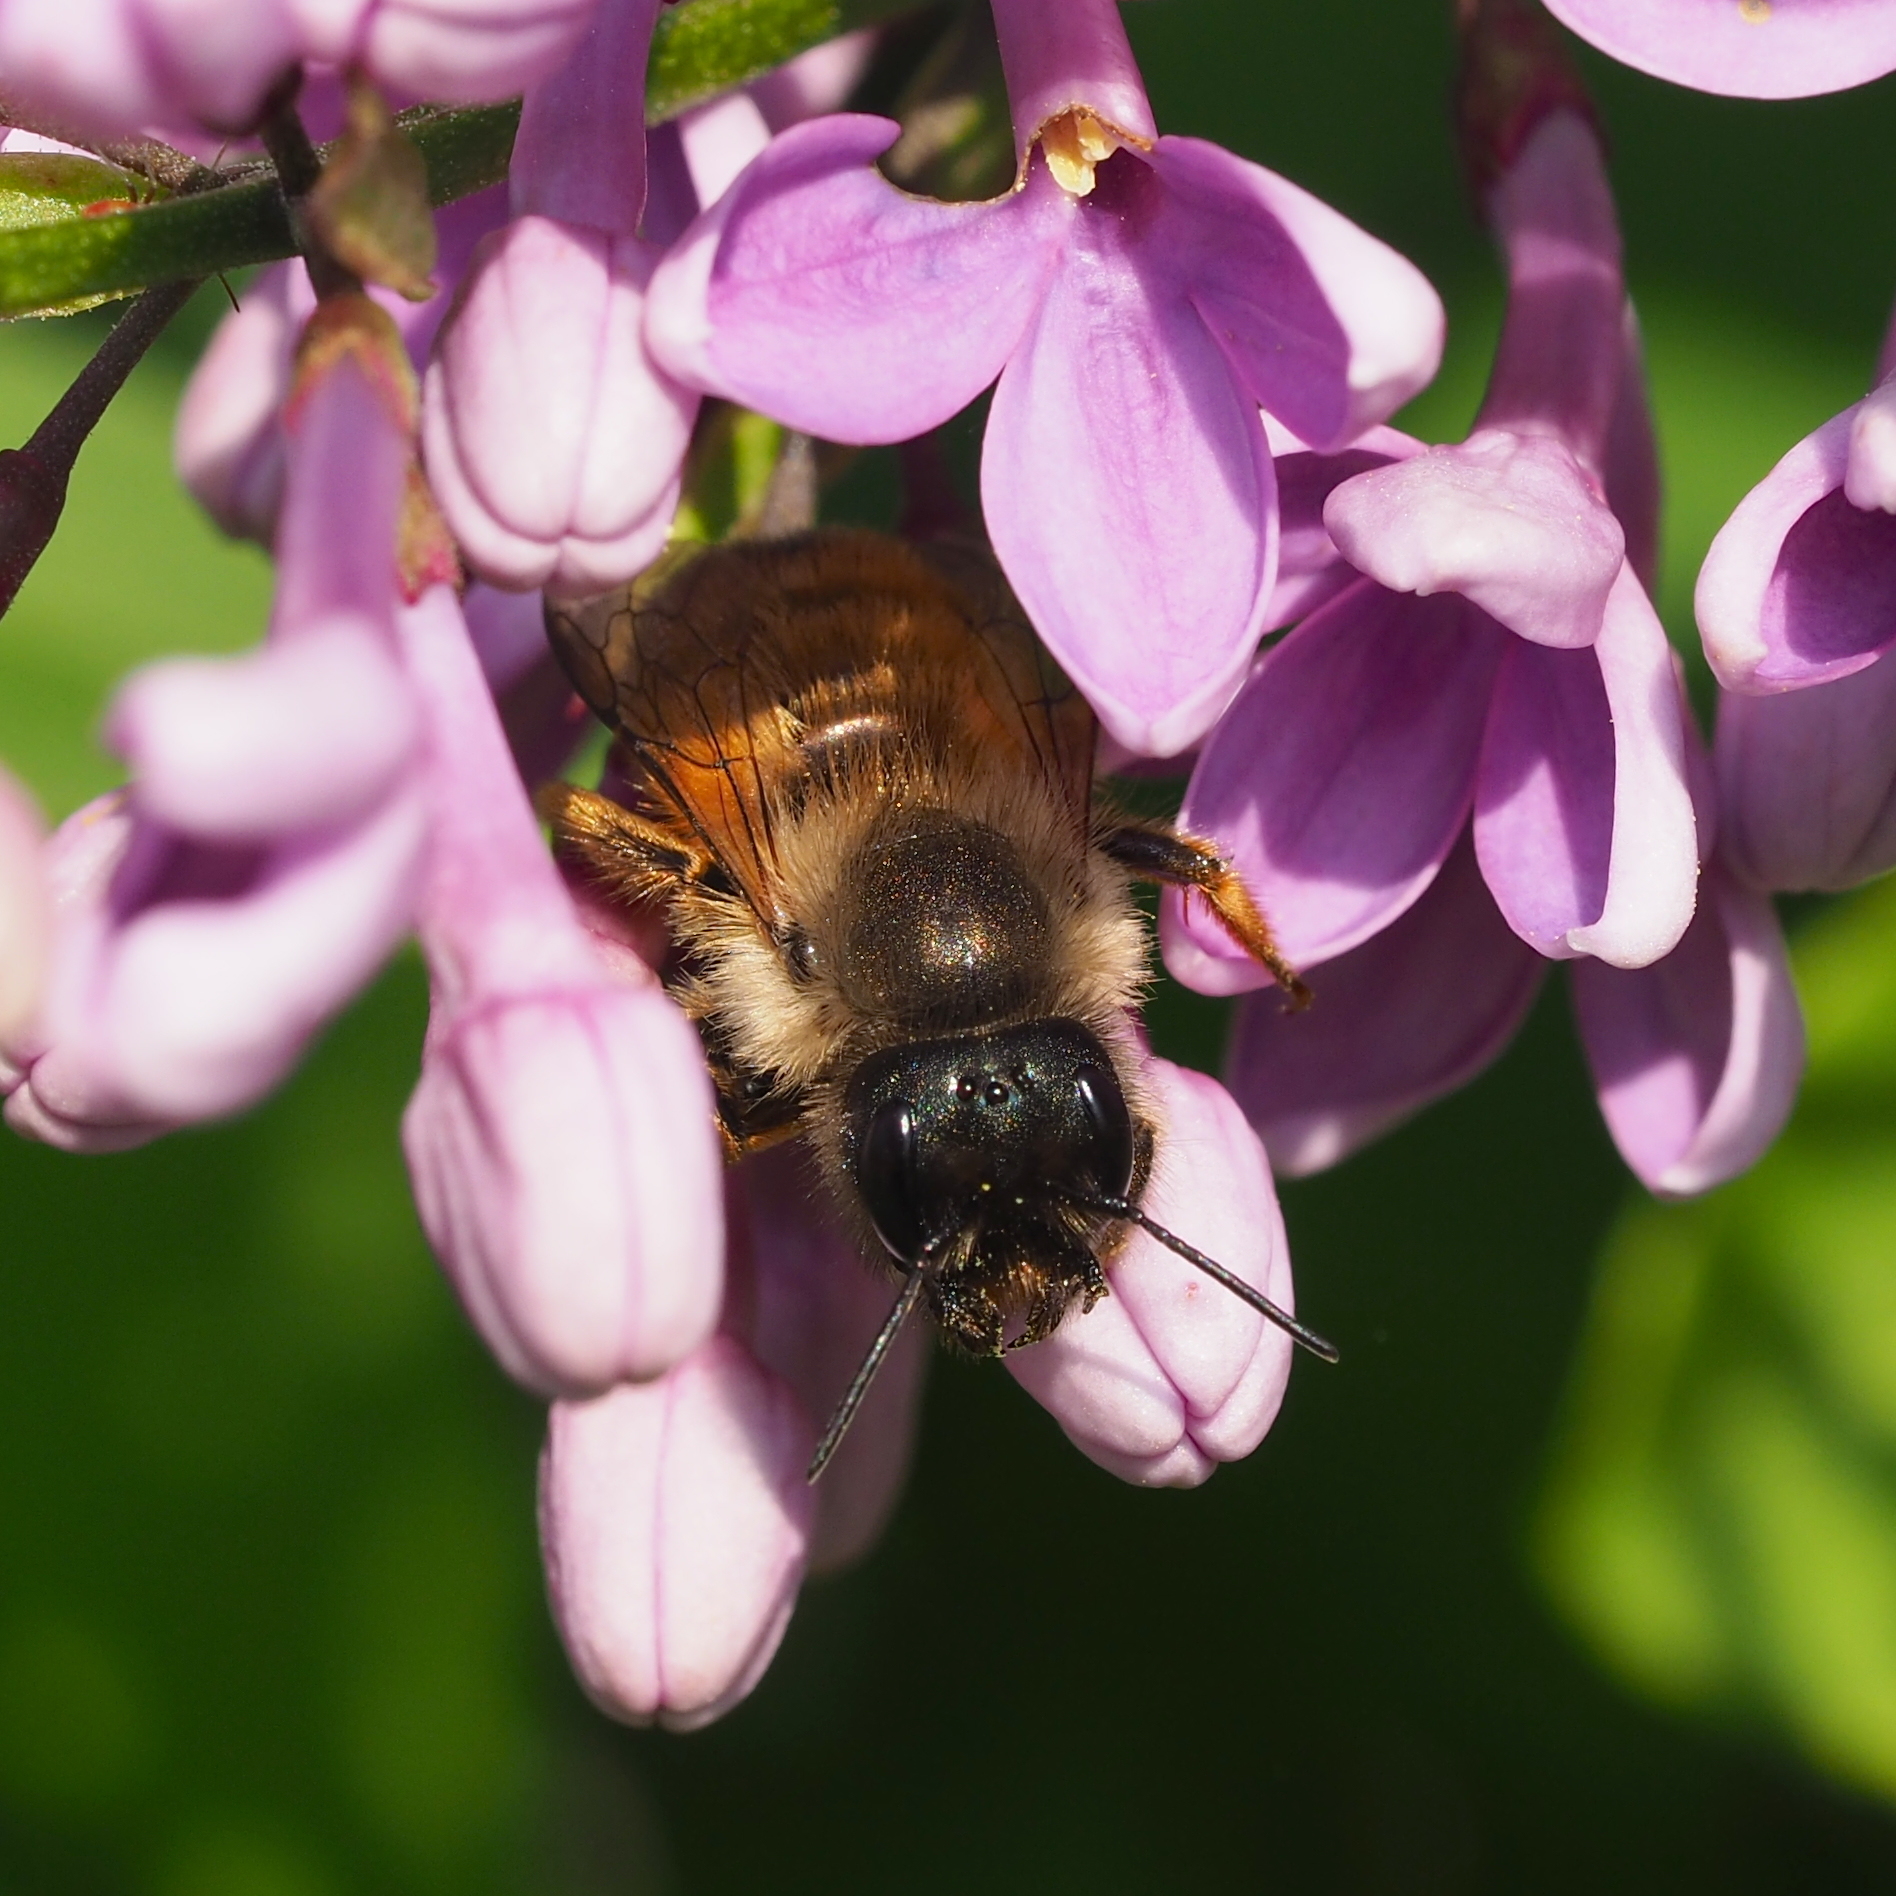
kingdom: Animalia
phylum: Arthropoda
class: Insecta
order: Hymenoptera
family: Megachilidae
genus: Osmia
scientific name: Osmia bicornis
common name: Red mason bee
